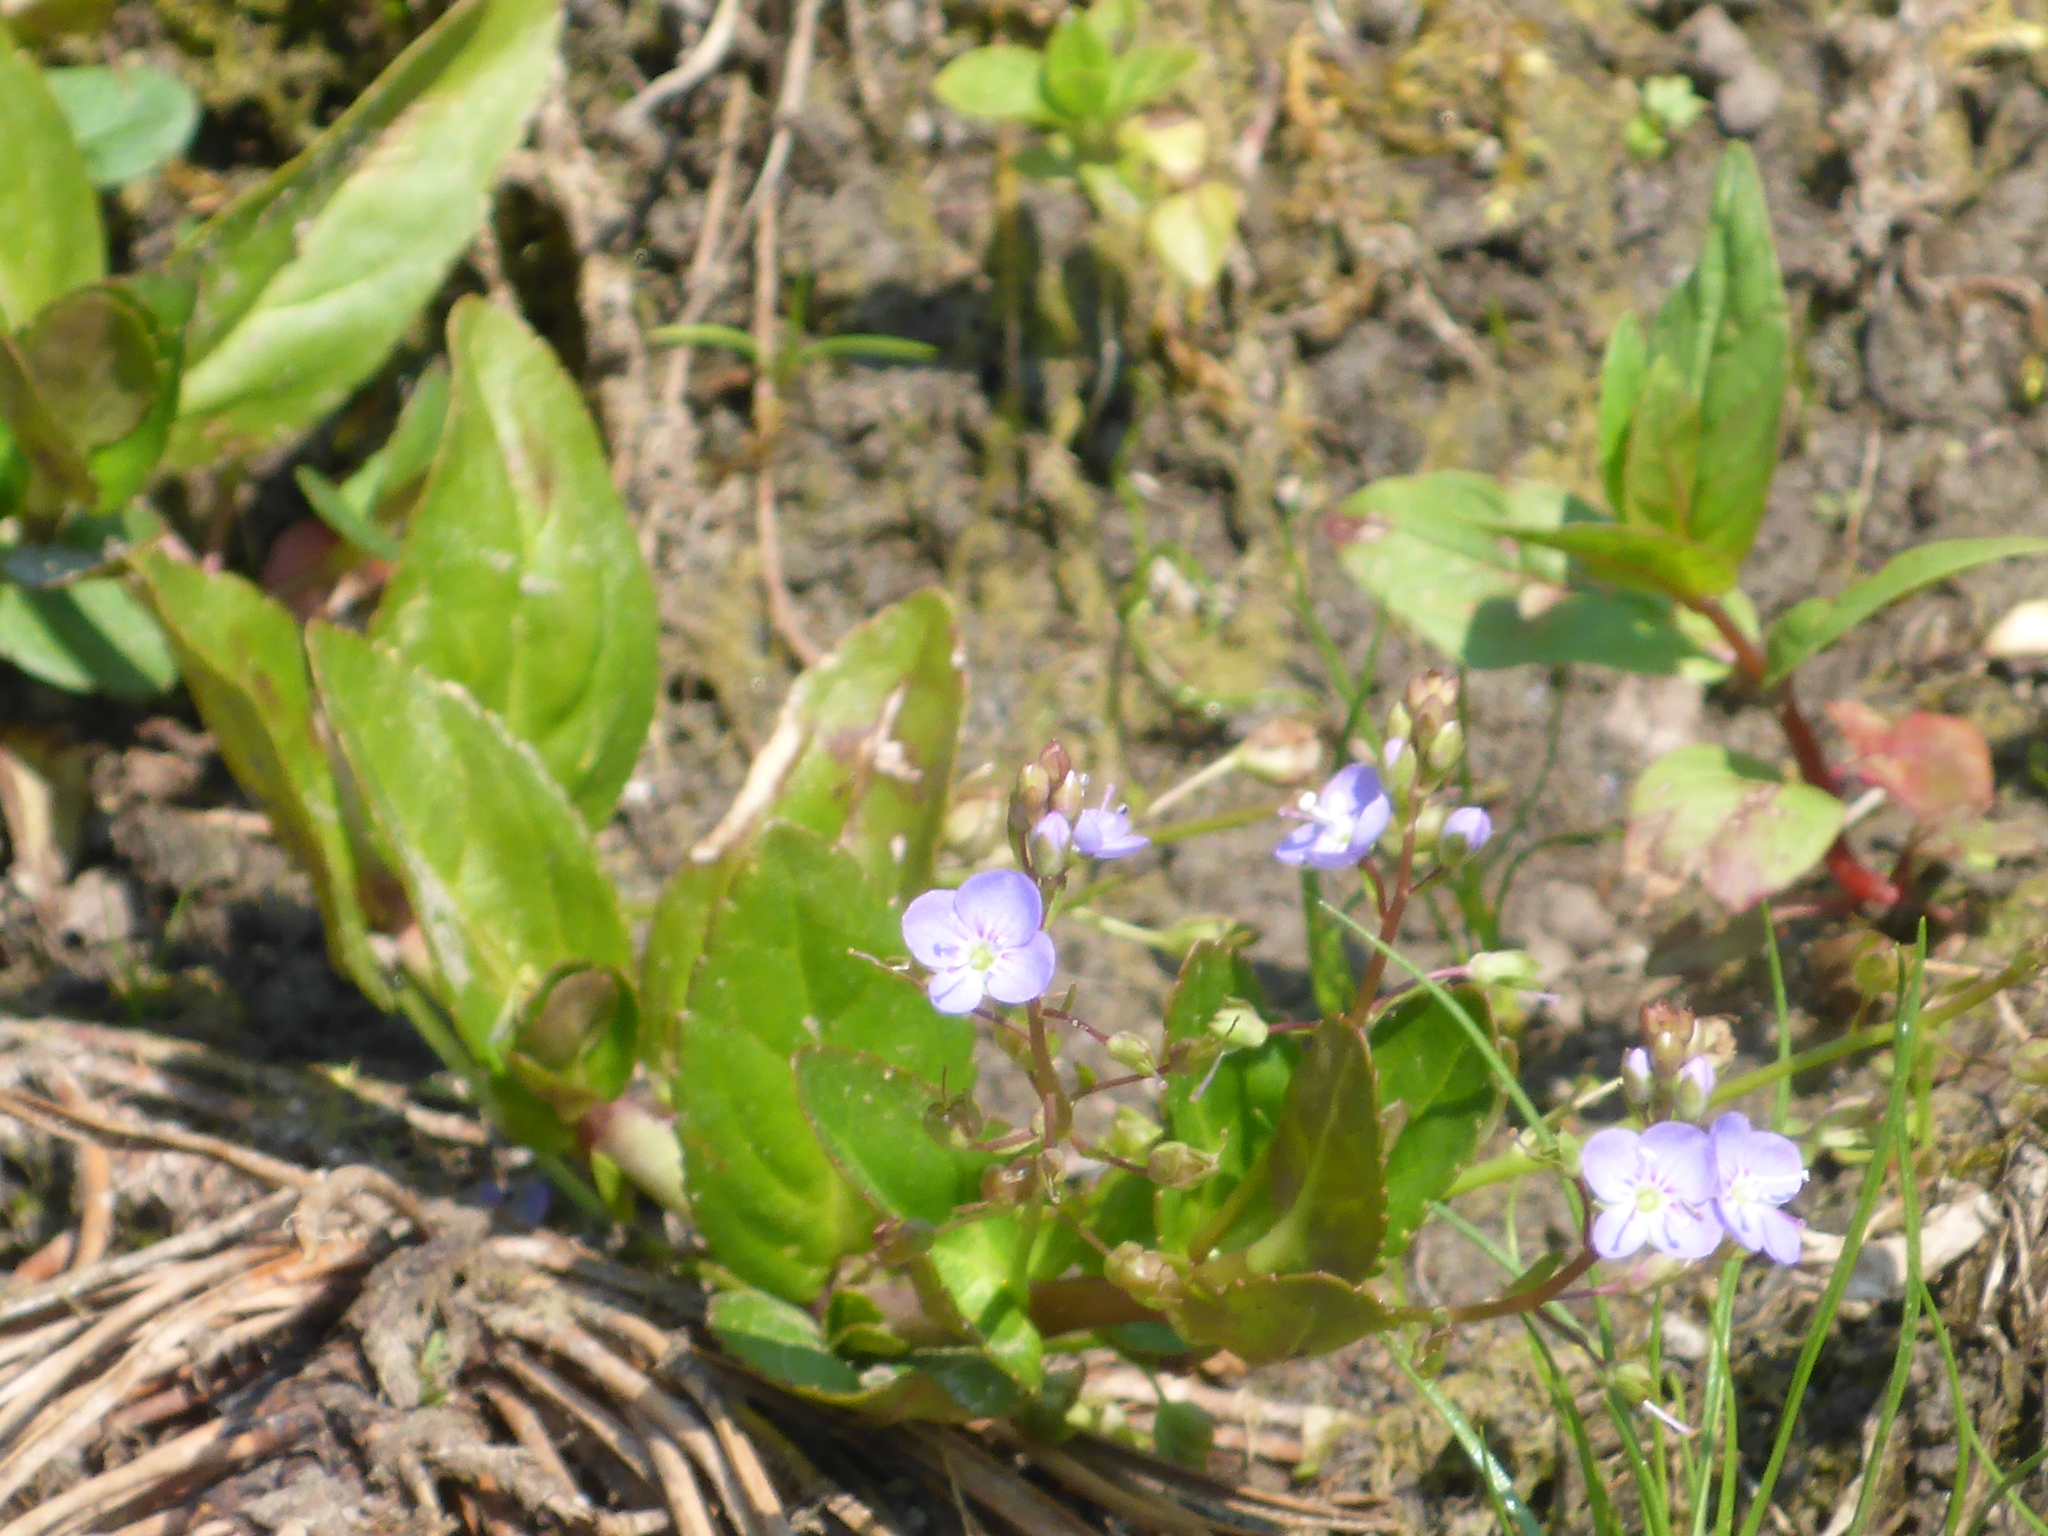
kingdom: Plantae
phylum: Tracheophyta
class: Magnoliopsida
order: Lamiales
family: Plantaginaceae
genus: Veronica
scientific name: Veronica anagallis-aquatica
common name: Water speedwell
